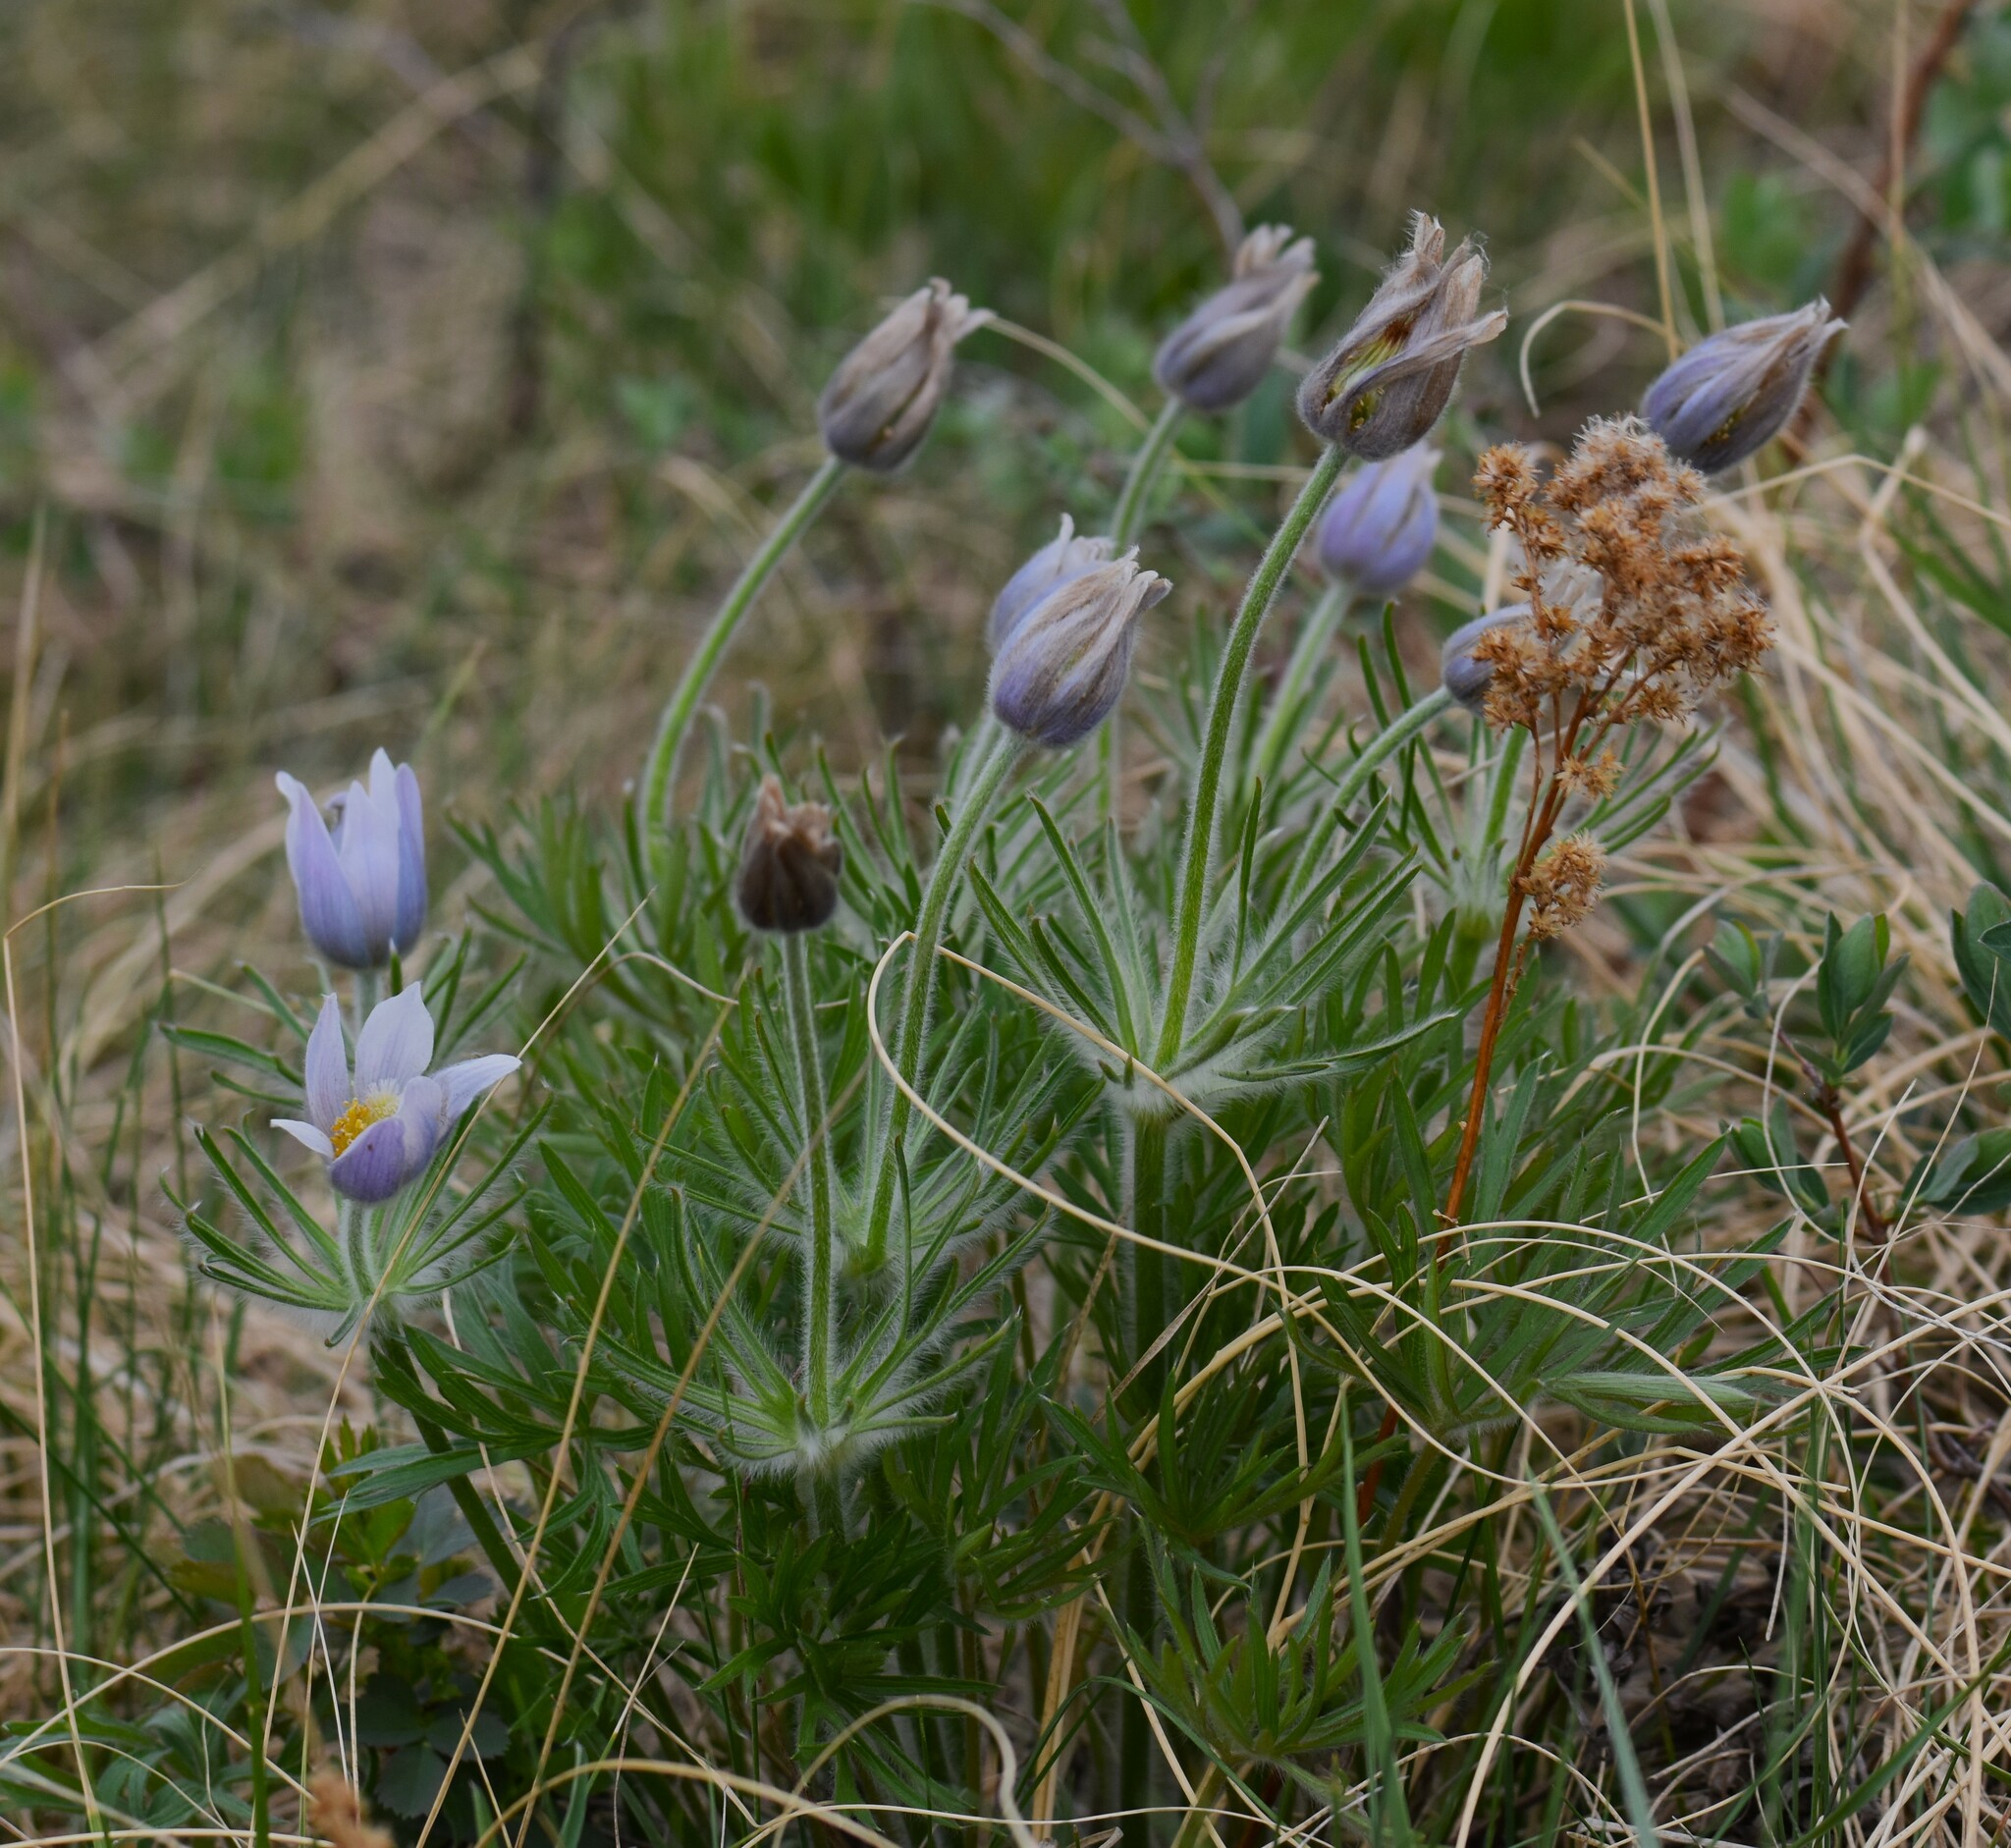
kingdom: Plantae
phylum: Tracheophyta
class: Magnoliopsida
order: Ranunculales
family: Ranunculaceae
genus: Pulsatilla
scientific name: Pulsatilla nuttalliana
